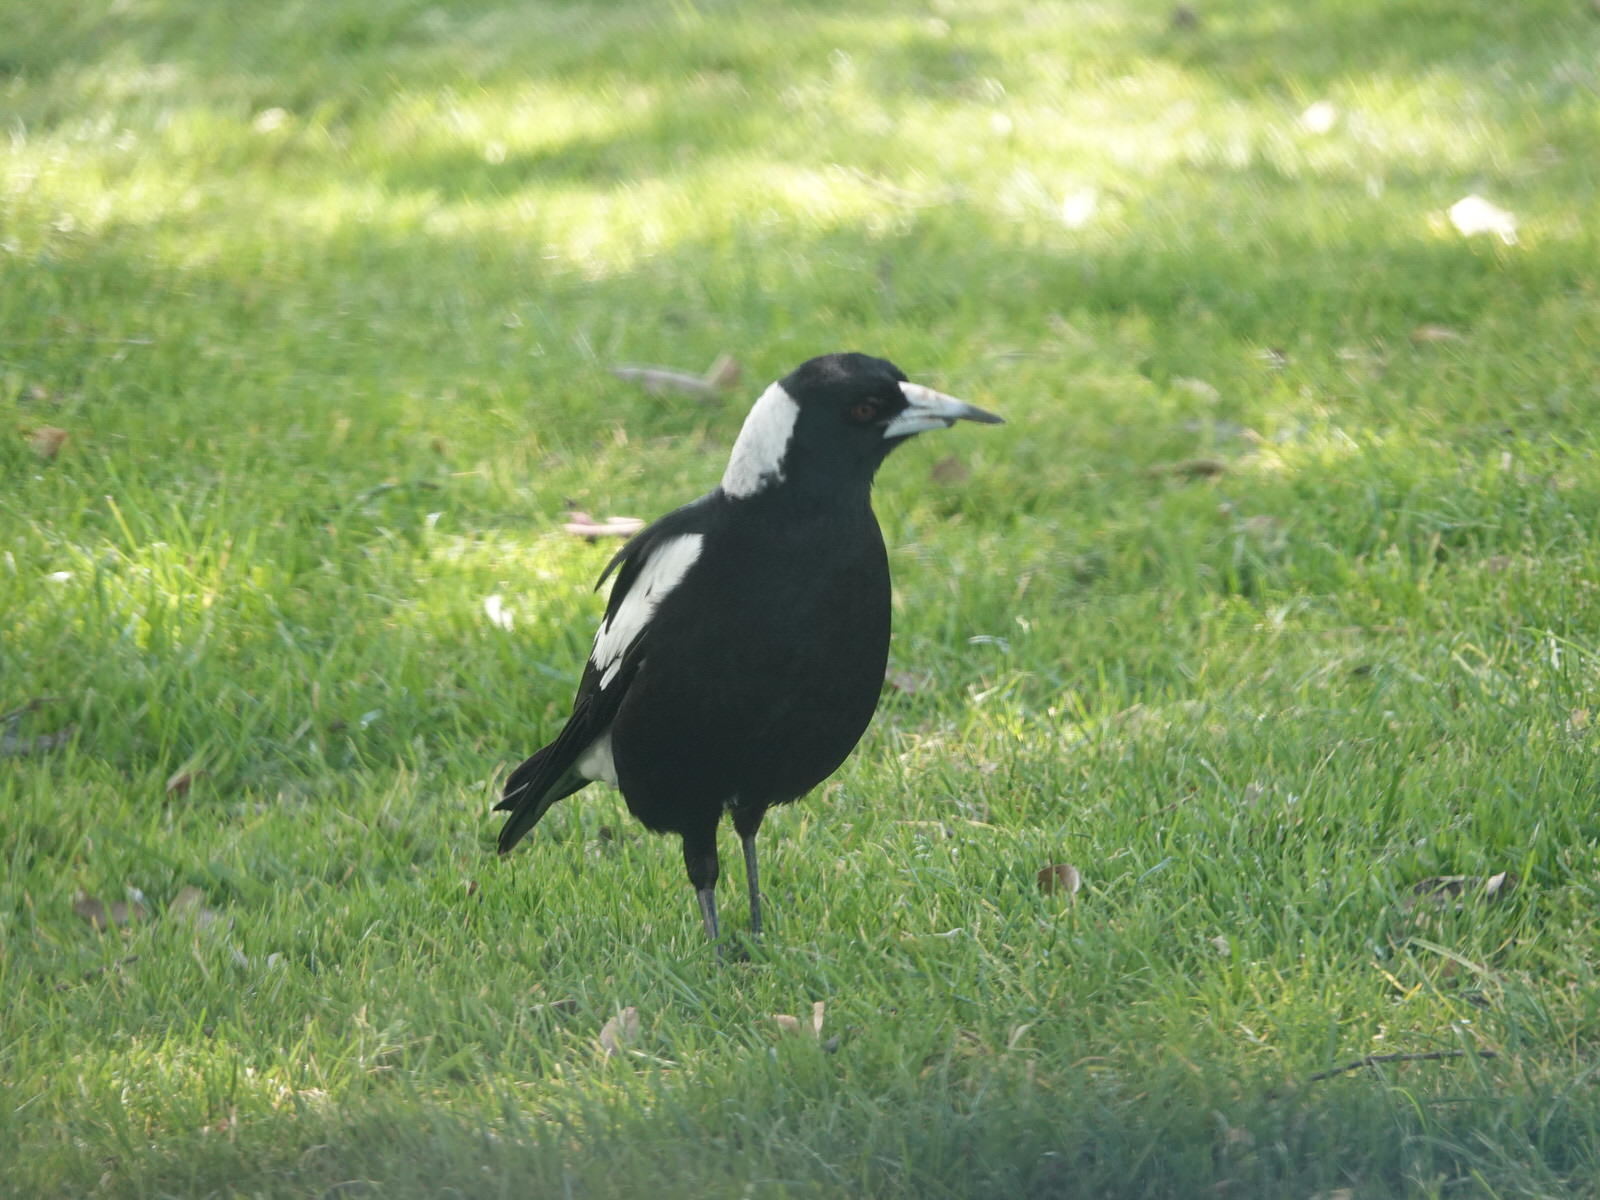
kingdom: Animalia
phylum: Chordata
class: Aves
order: Passeriformes
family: Cracticidae
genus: Gymnorhina
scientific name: Gymnorhina tibicen
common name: Australian magpie
